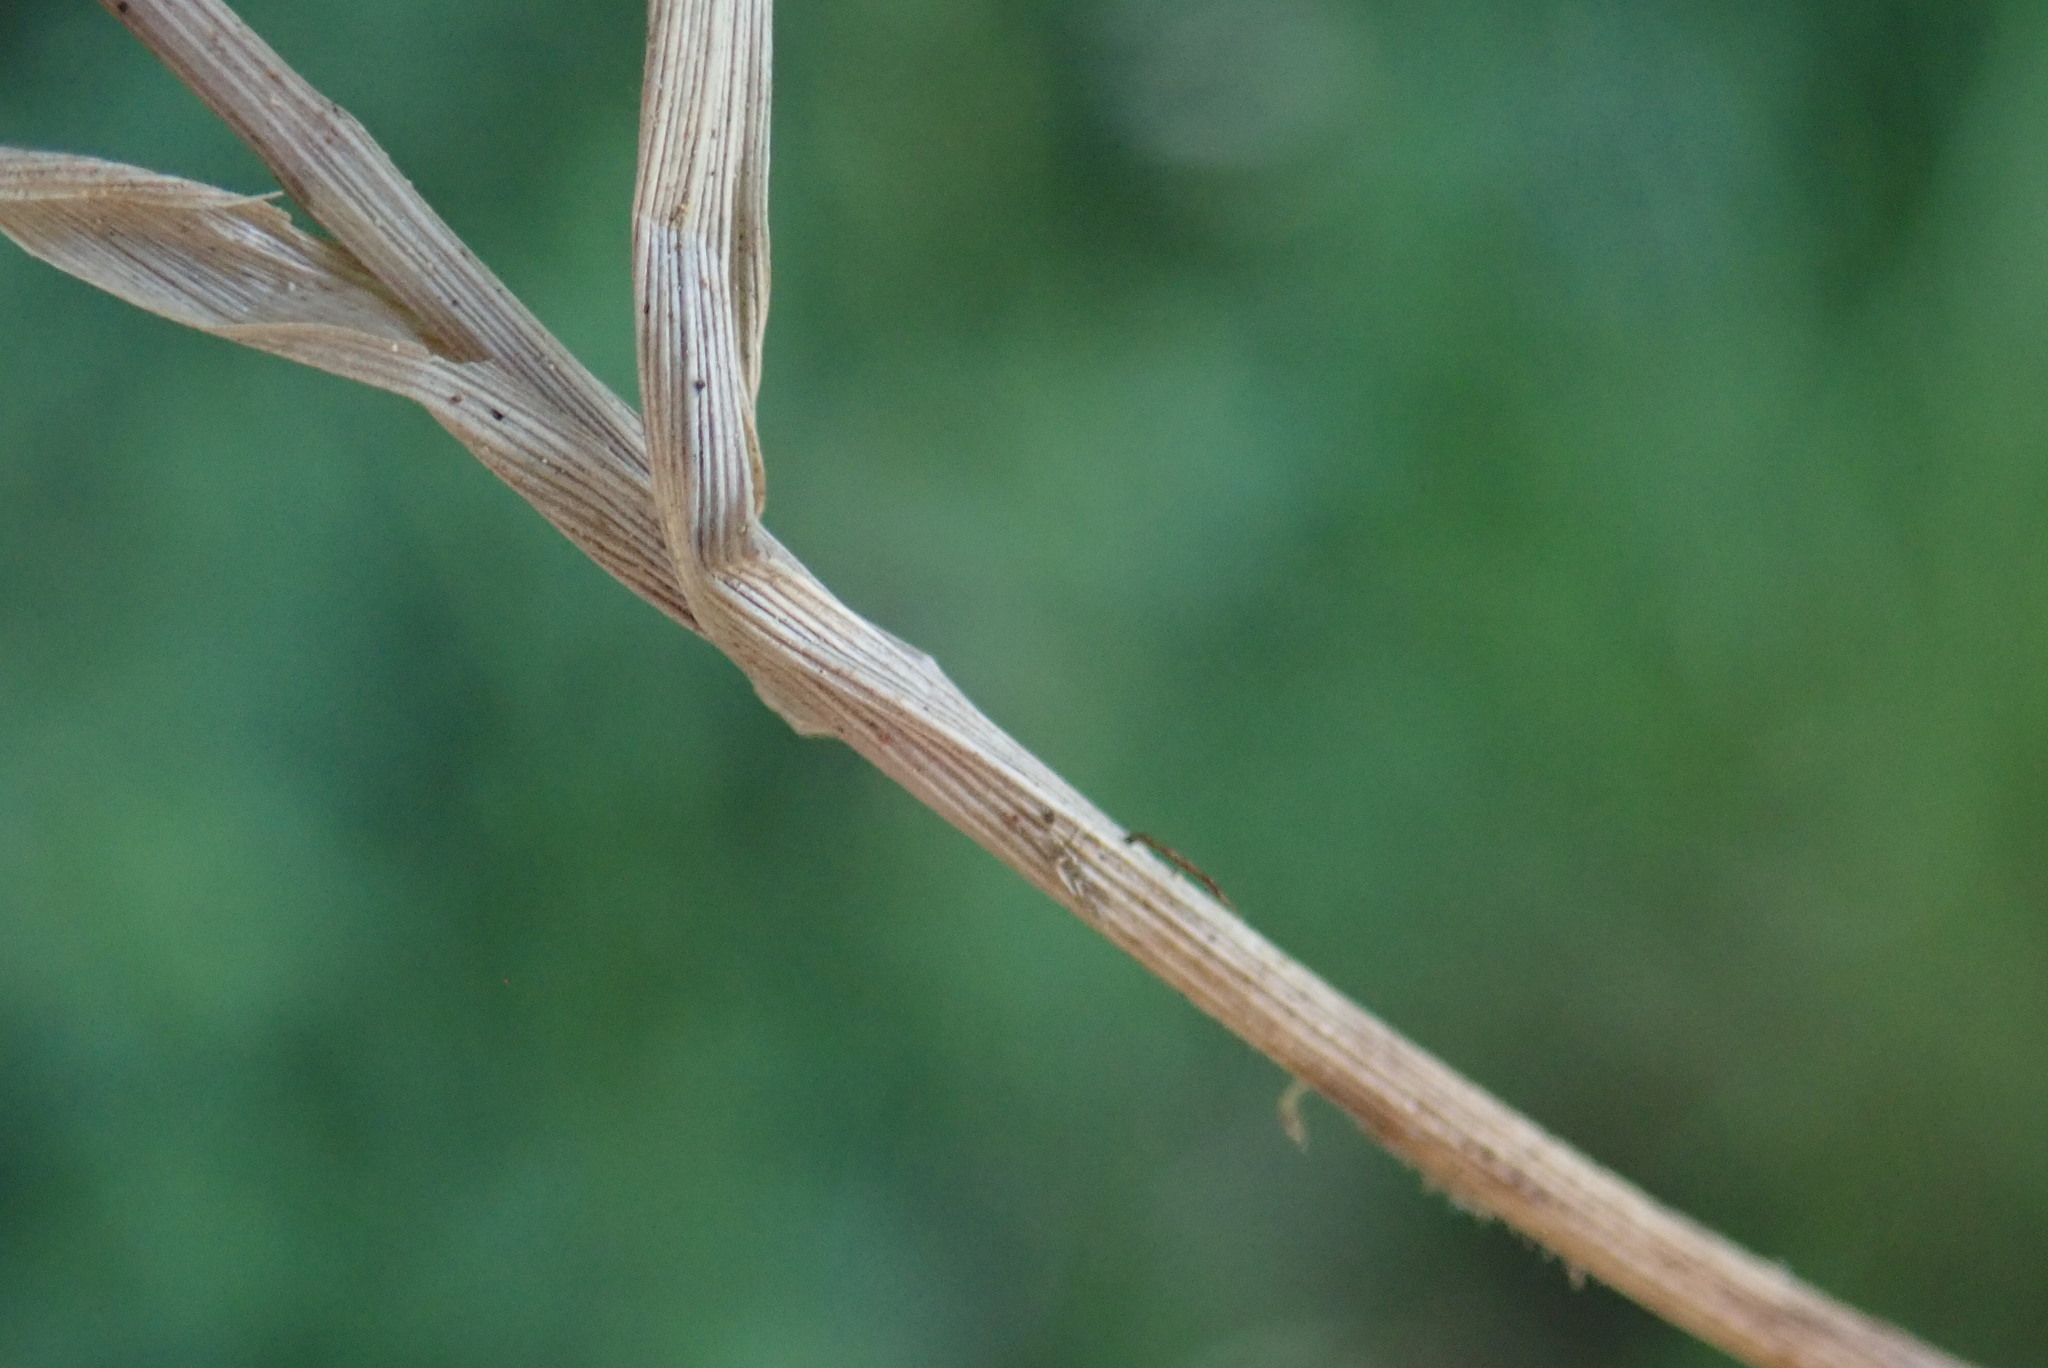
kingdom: Plantae
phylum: Tracheophyta
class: Liliopsida
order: Poales
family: Poaceae
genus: Melica
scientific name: Melica ciliata
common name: Hairy melicgrass
